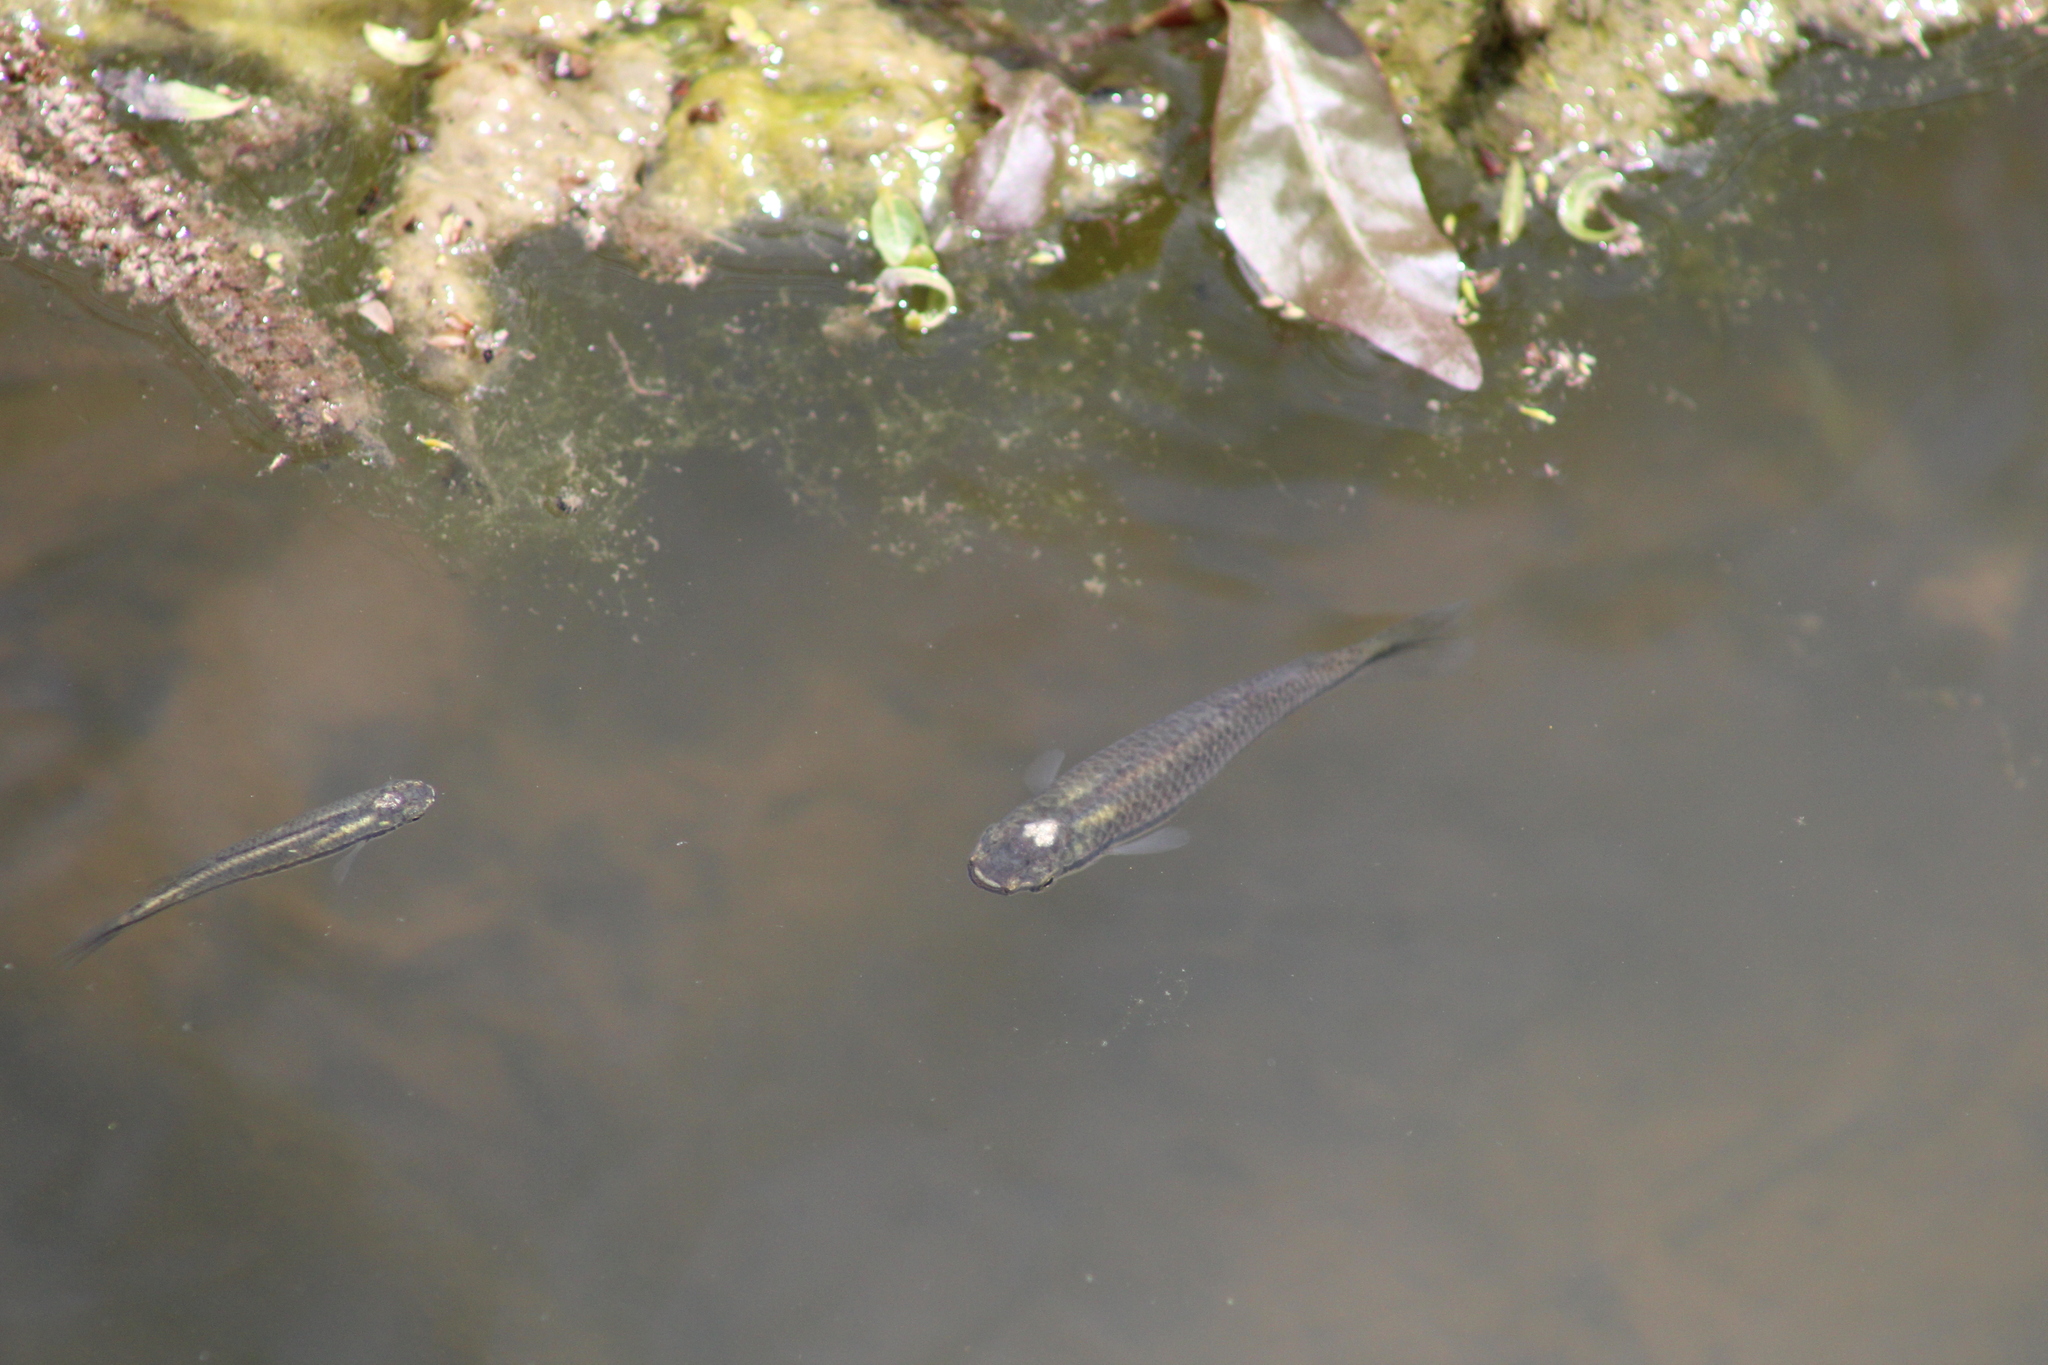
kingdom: Animalia
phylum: Chordata
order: Cyprinodontiformes
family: Fundulidae
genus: Fundulus
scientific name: Fundulus notatus
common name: Blackstripe topminnow
